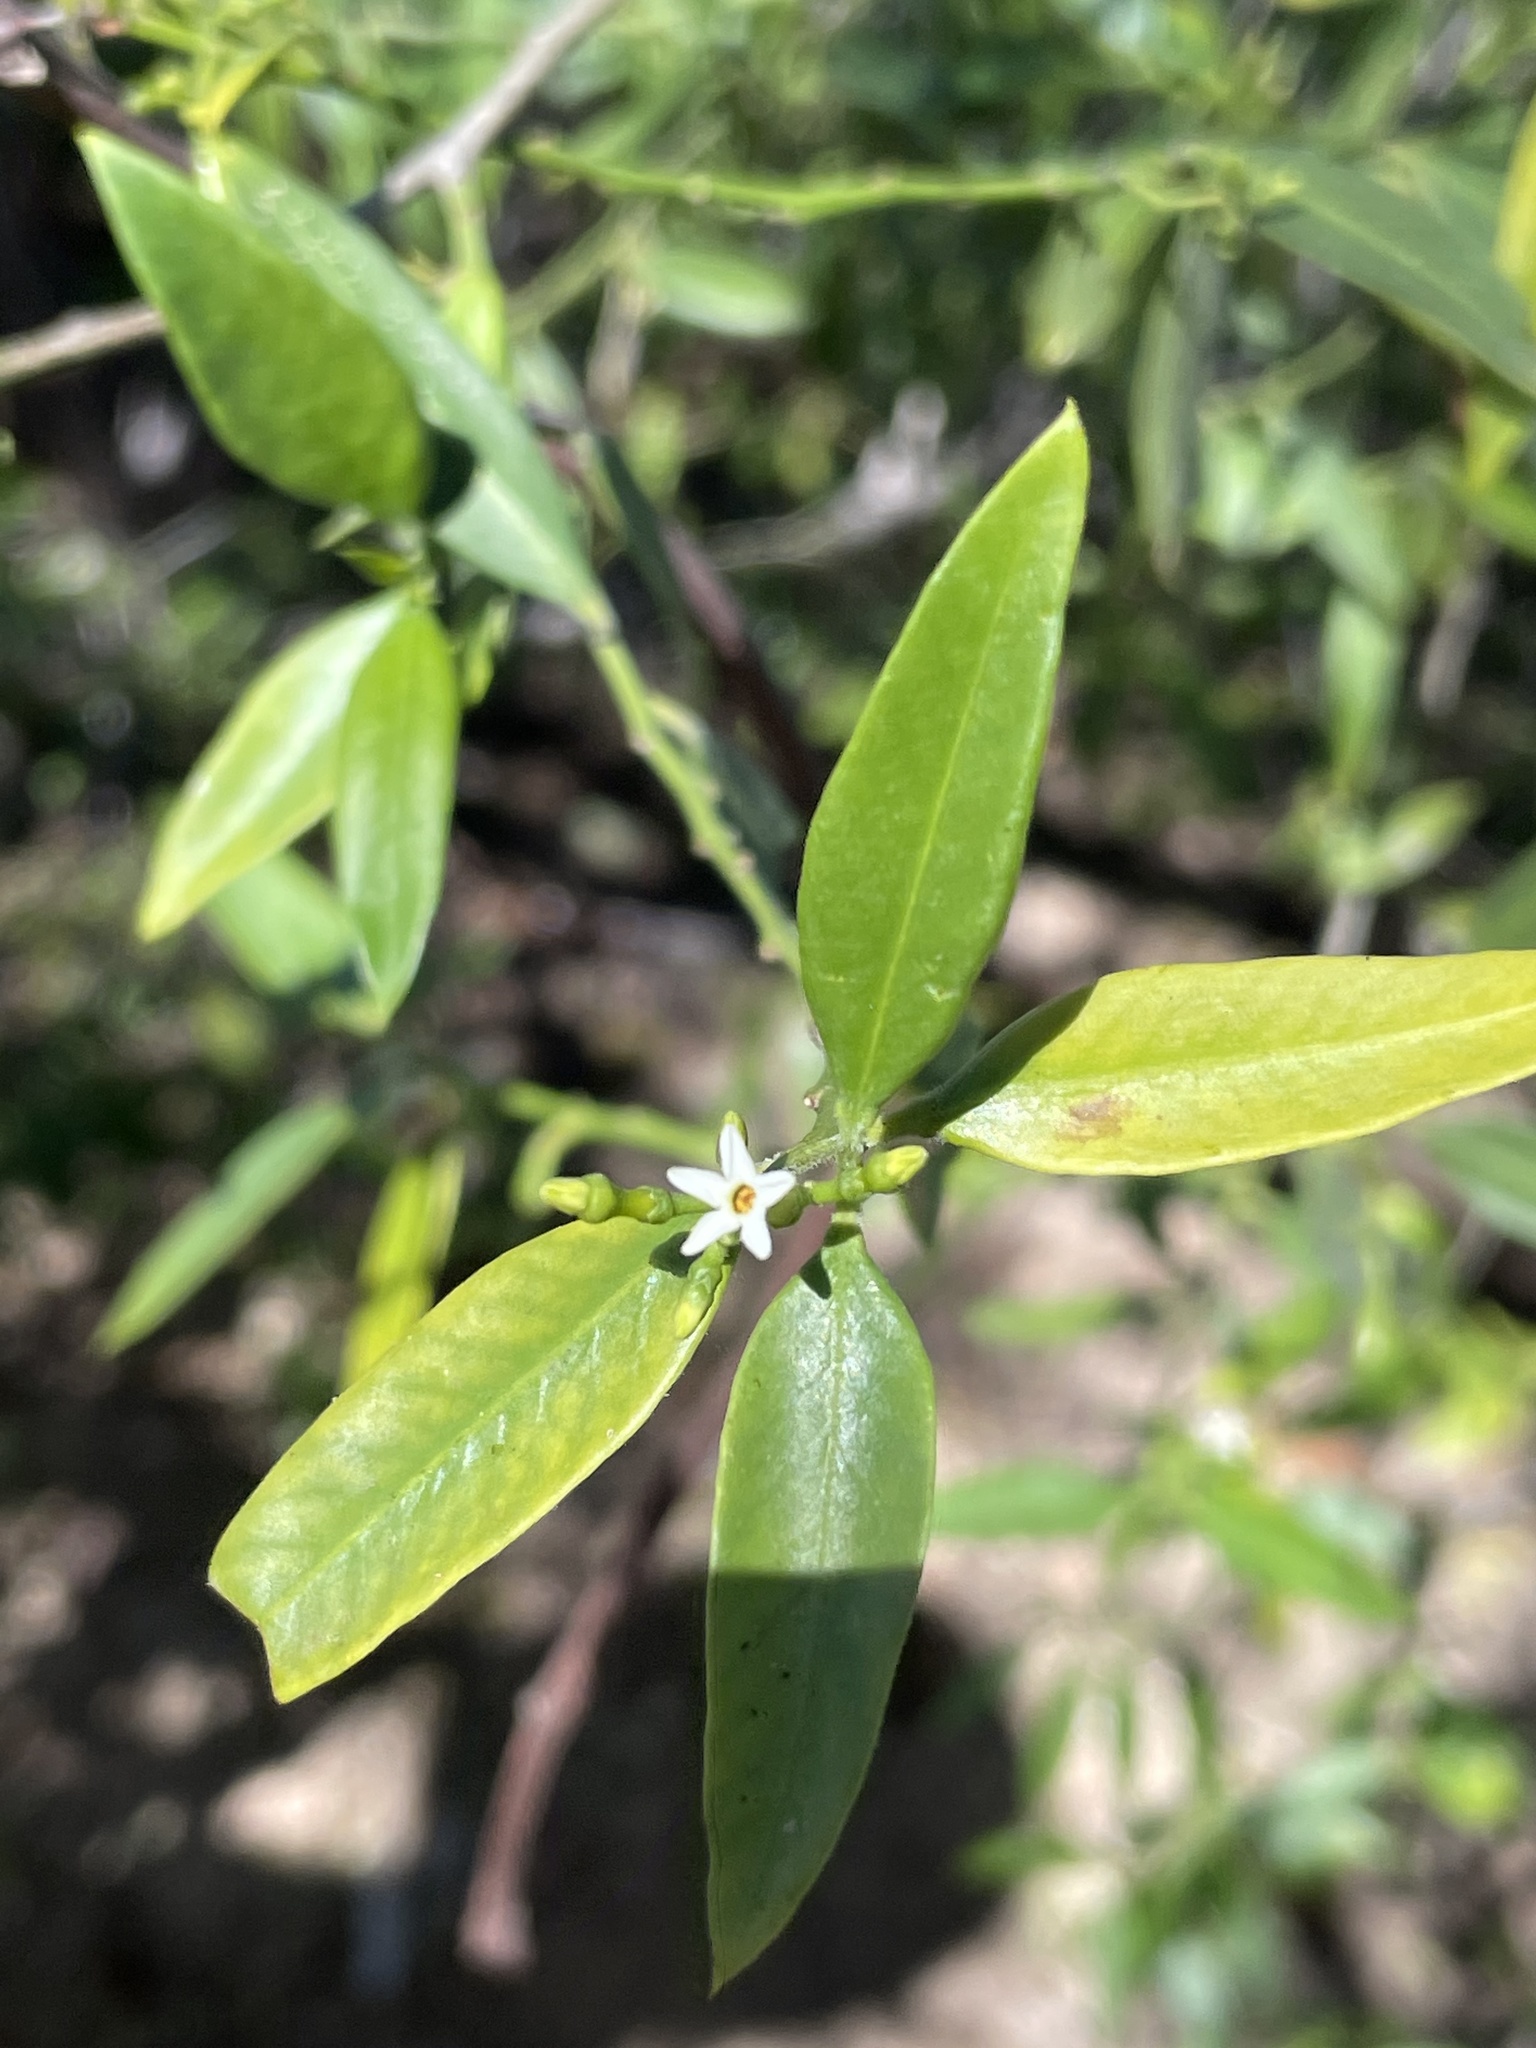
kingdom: Plantae
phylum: Tracheophyta
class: Magnoliopsida
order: Gentianales
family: Apocynaceae
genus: Vallesia
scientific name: Vallesia glabra
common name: Pearlberry
